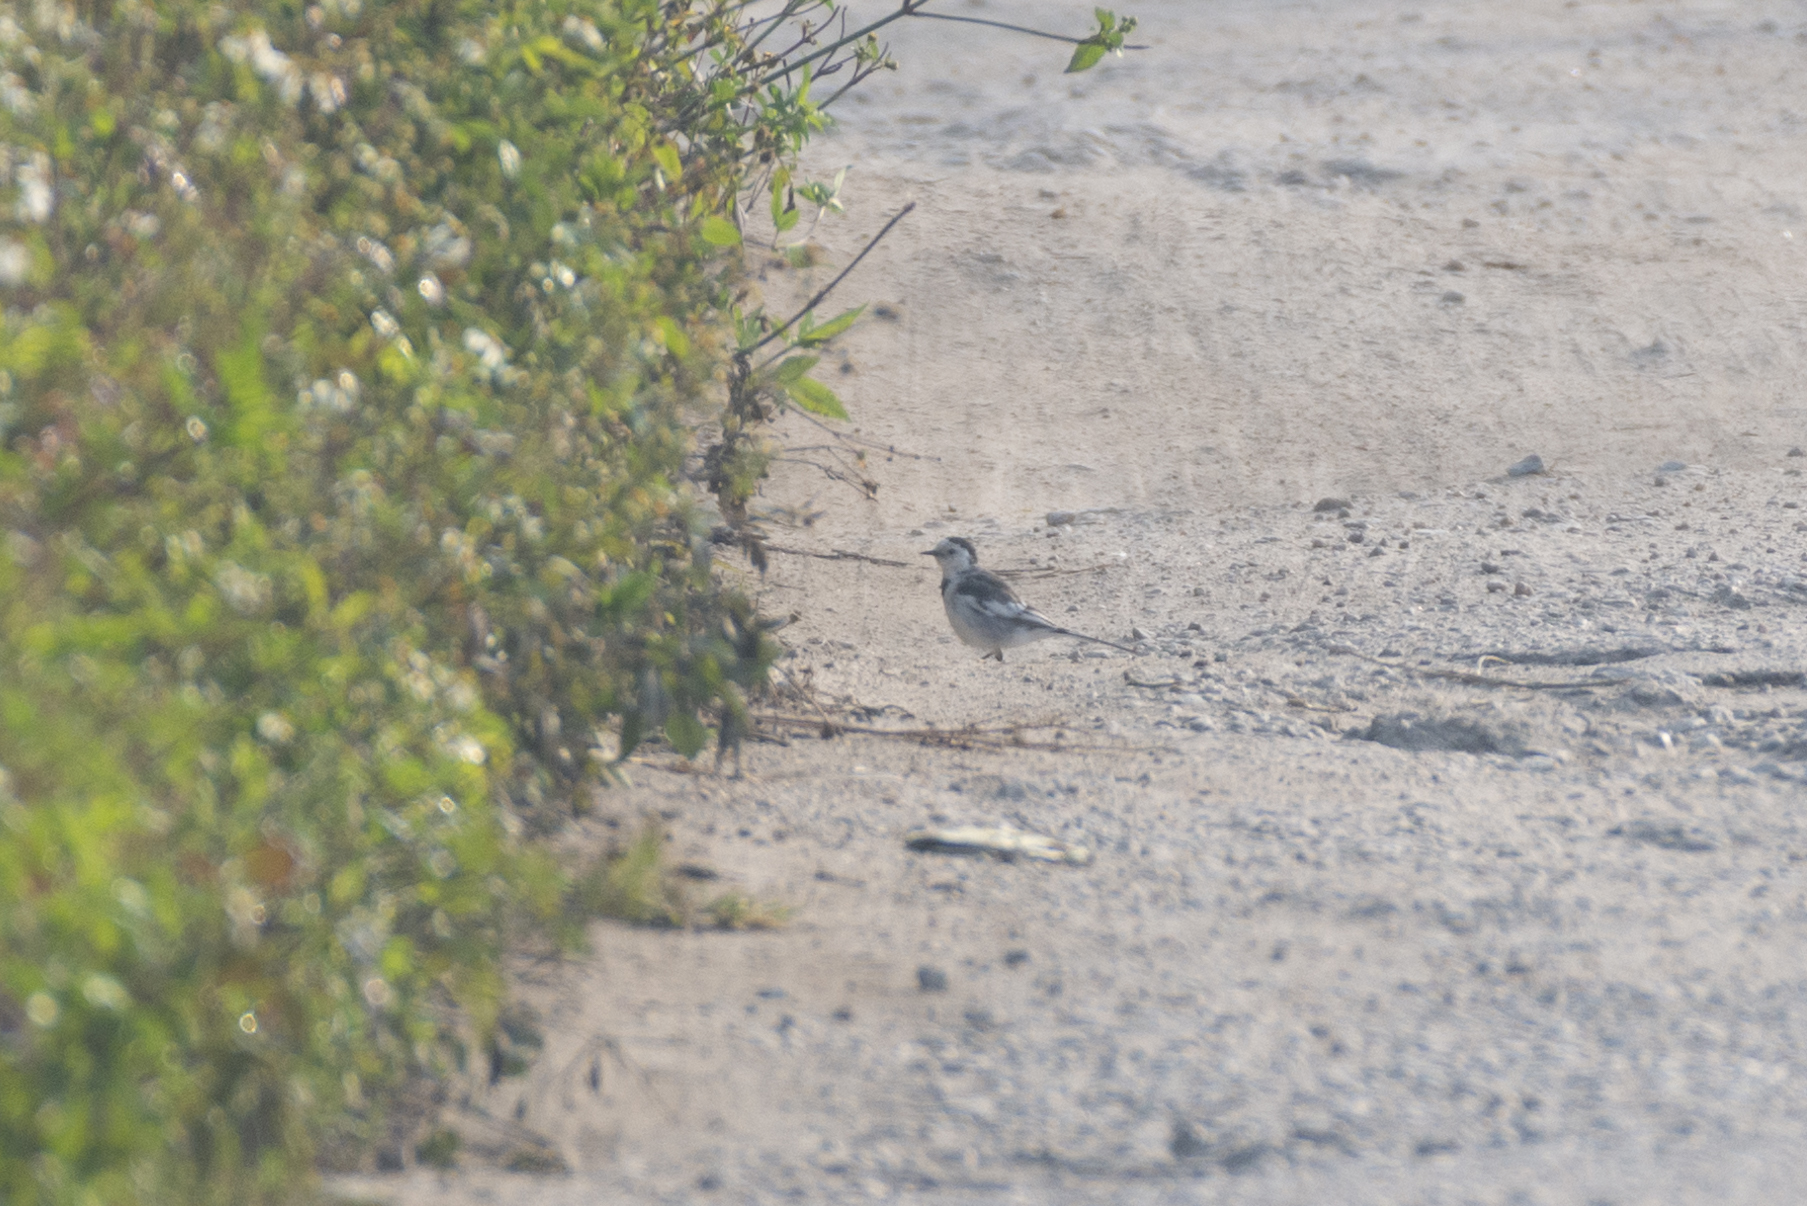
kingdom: Animalia
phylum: Chordata
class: Aves
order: Passeriformes
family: Motacillidae
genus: Motacilla
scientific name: Motacilla alba
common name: White wagtail
